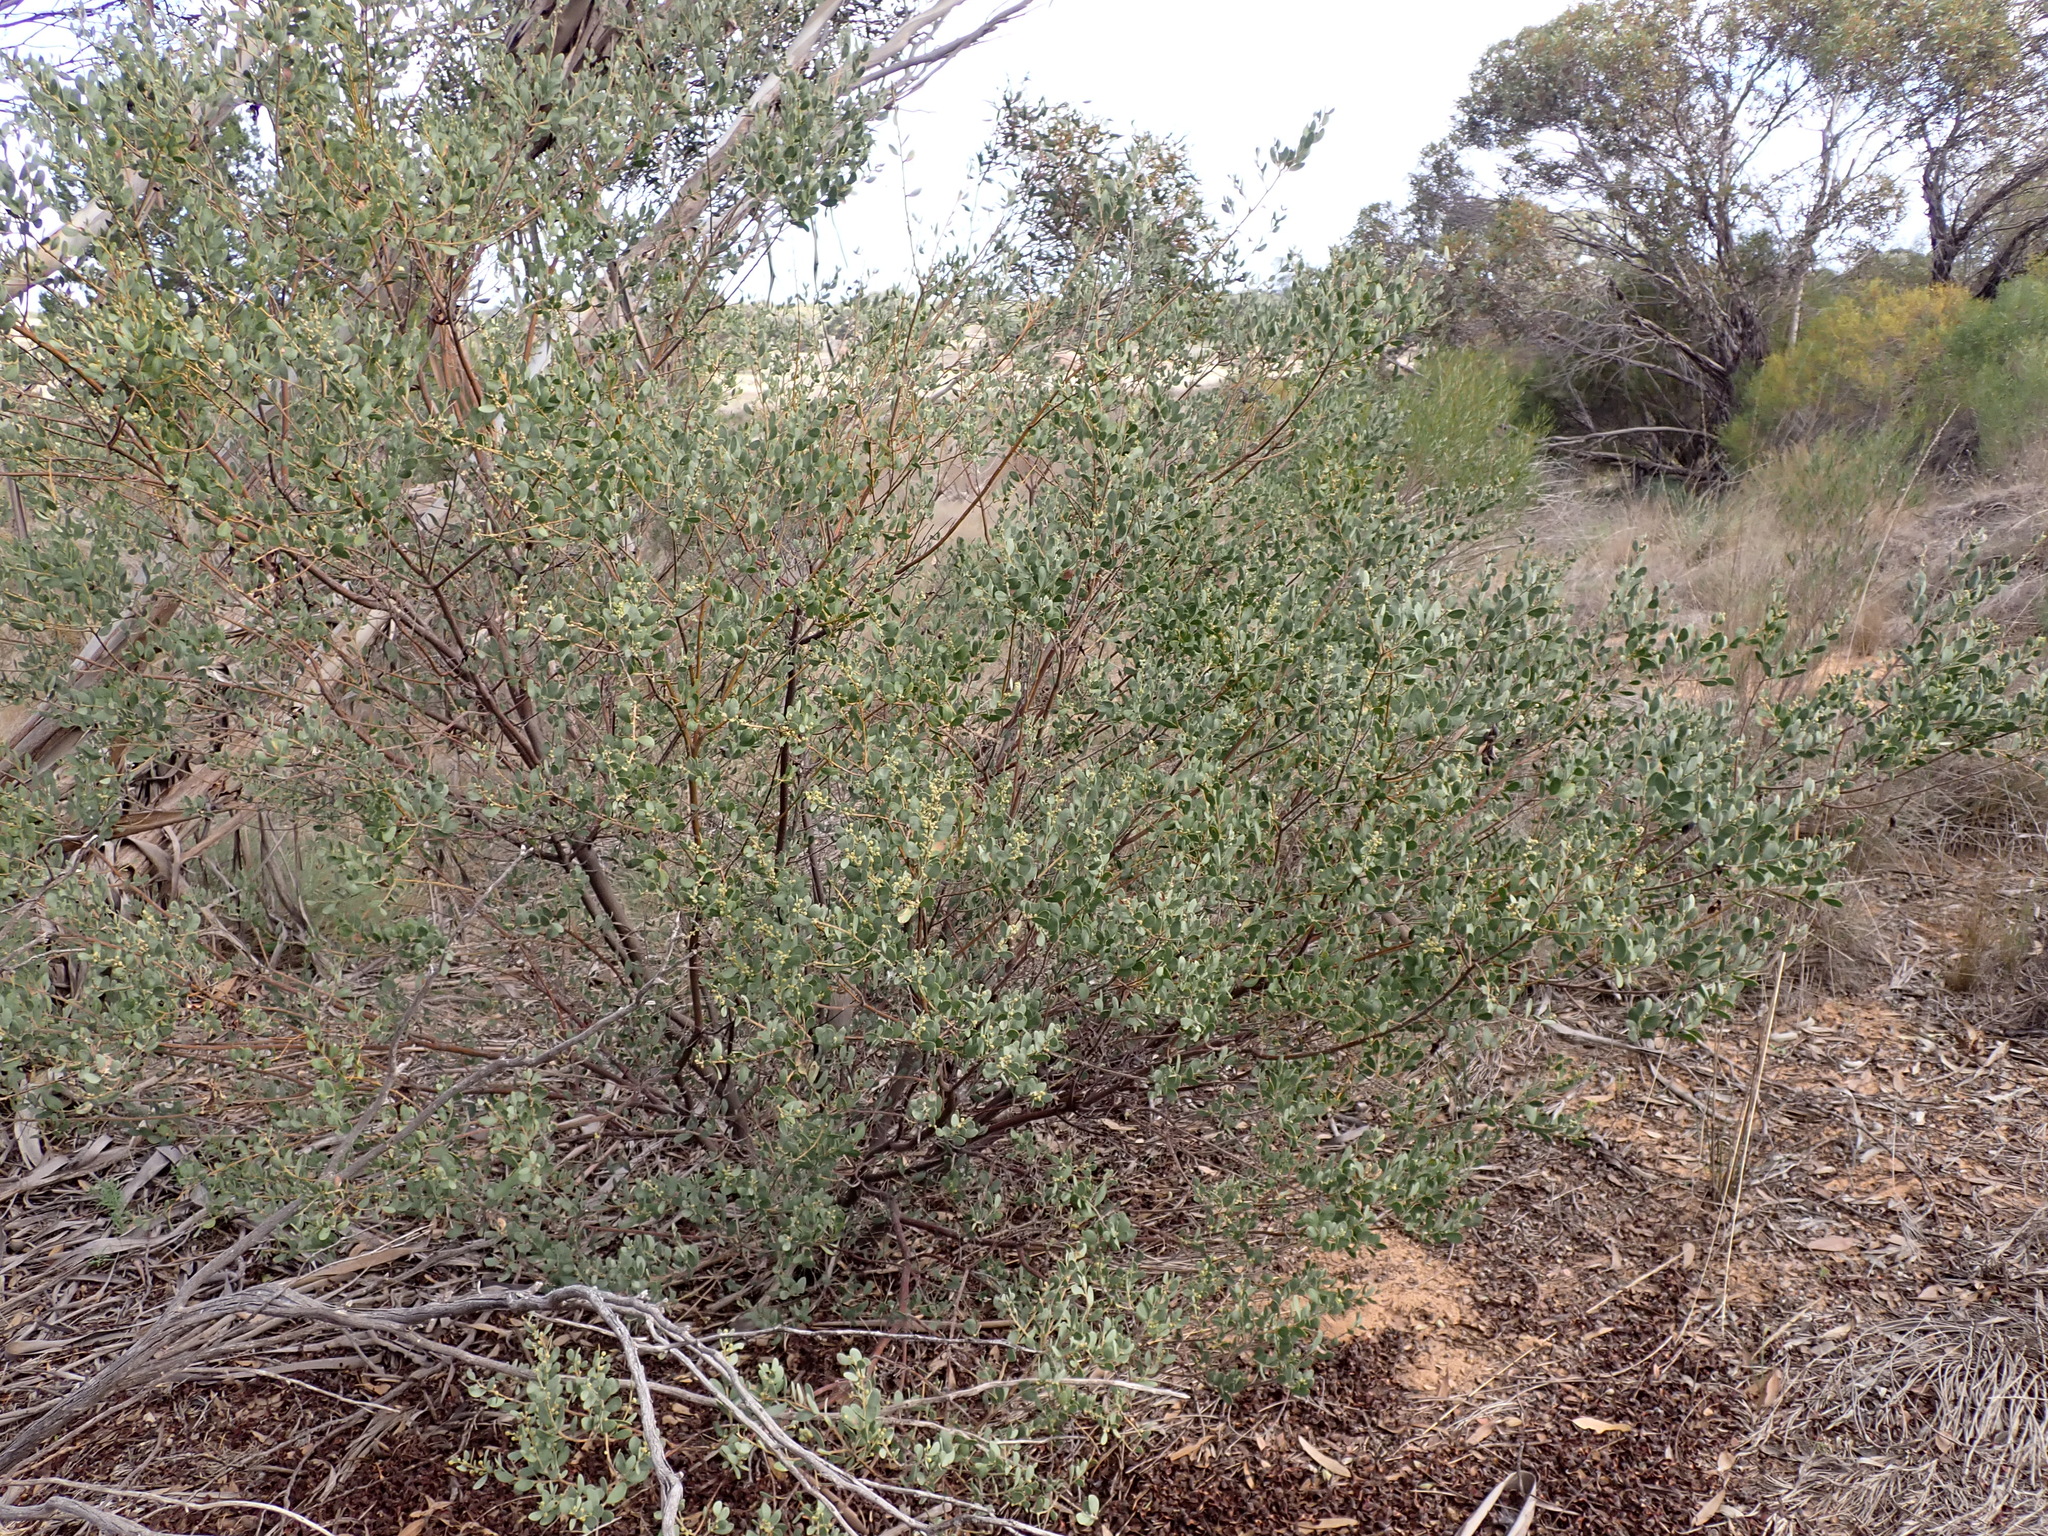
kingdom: Plantae
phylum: Tracheophyta
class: Magnoliopsida
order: Fabales
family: Fabaceae
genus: Acacia
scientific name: Acacia brachybotrya
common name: Grey mulga
